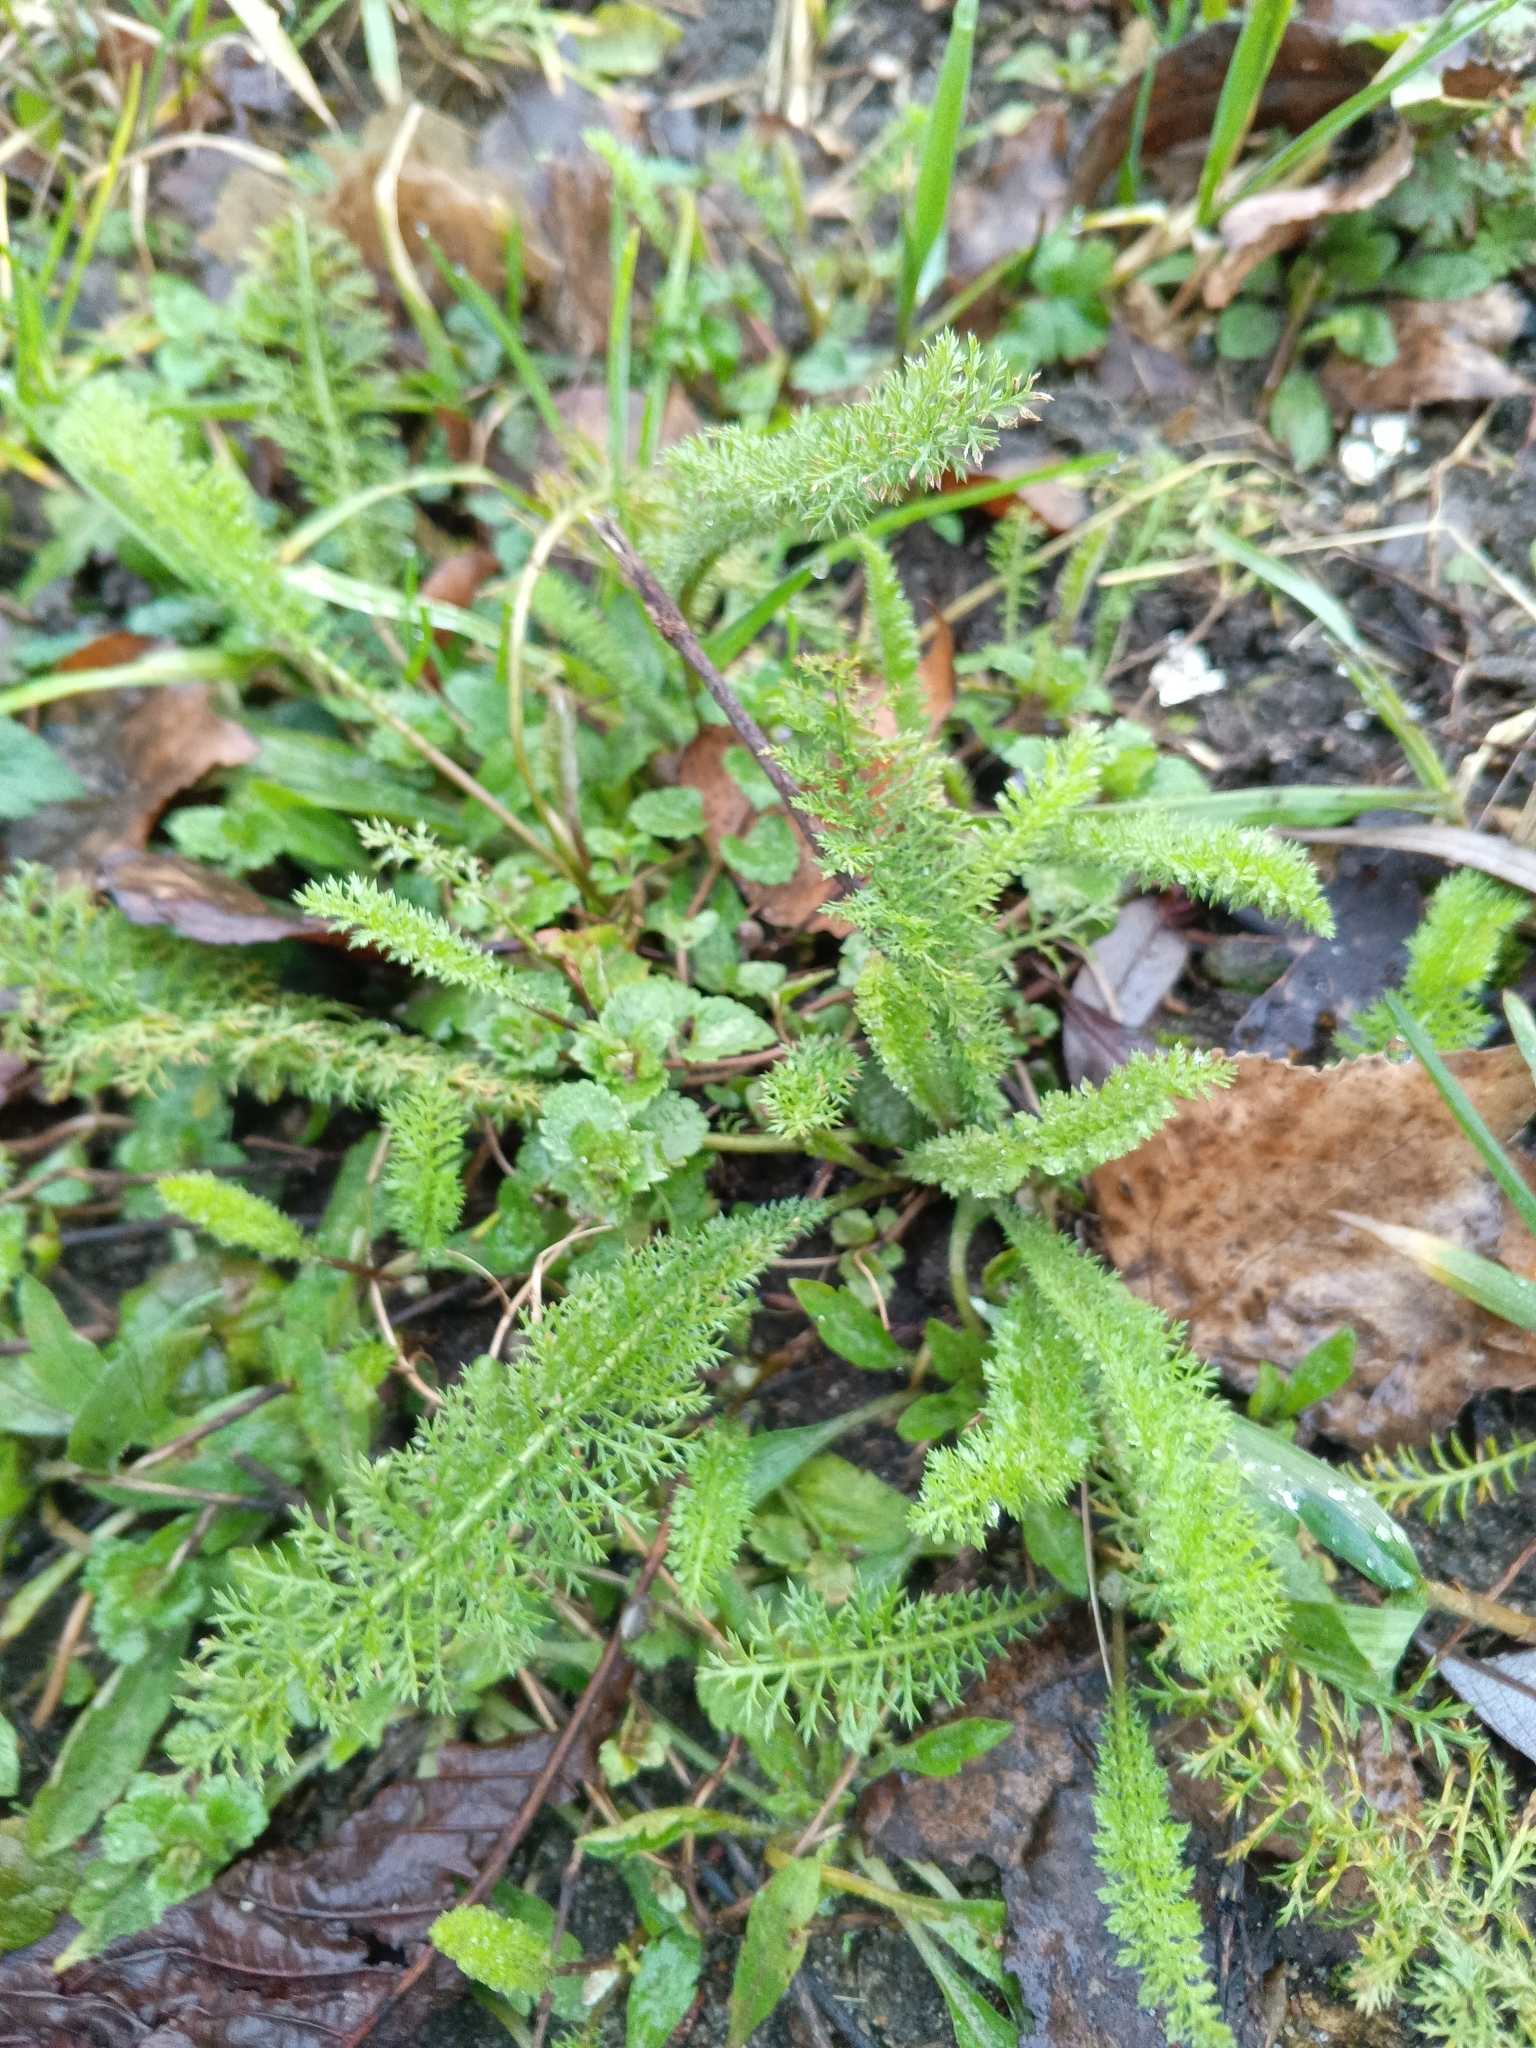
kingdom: Plantae
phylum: Tracheophyta
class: Magnoliopsida
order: Asterales
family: Asteraceae
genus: Achillea
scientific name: Achillea millefolium
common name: Yarrow
